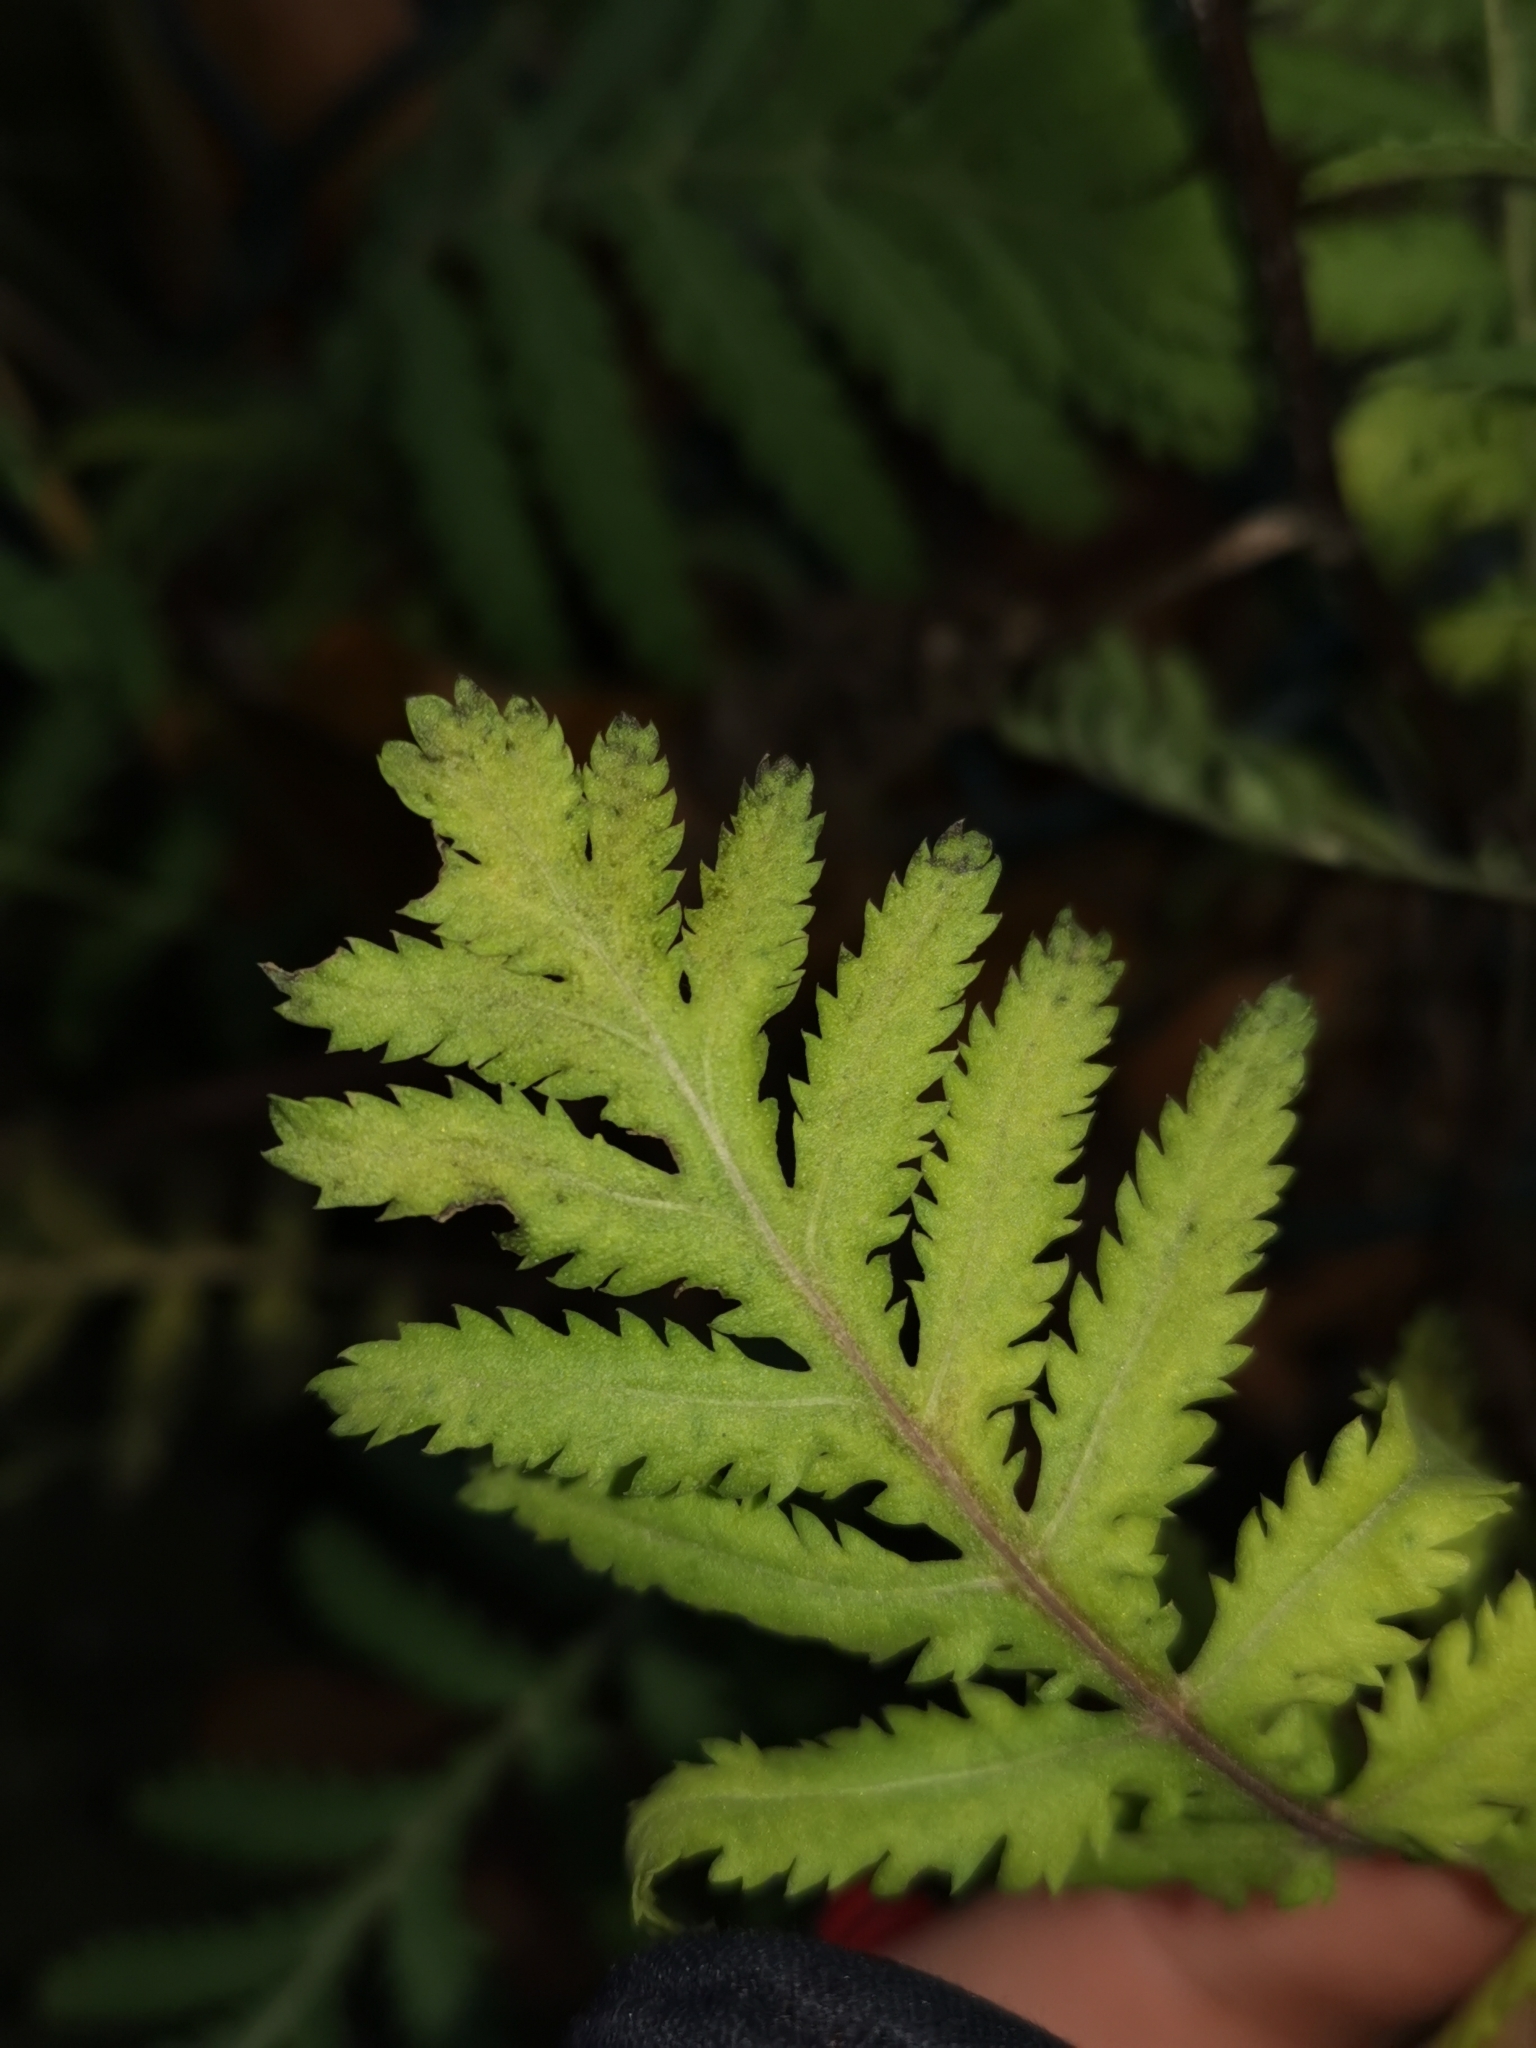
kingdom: Plantae
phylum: Tracheophyta
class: Magnoliopsida
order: Asterales
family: Asteraceae
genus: Tanacetum
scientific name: Tanacetum vulgare
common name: Common tansy
